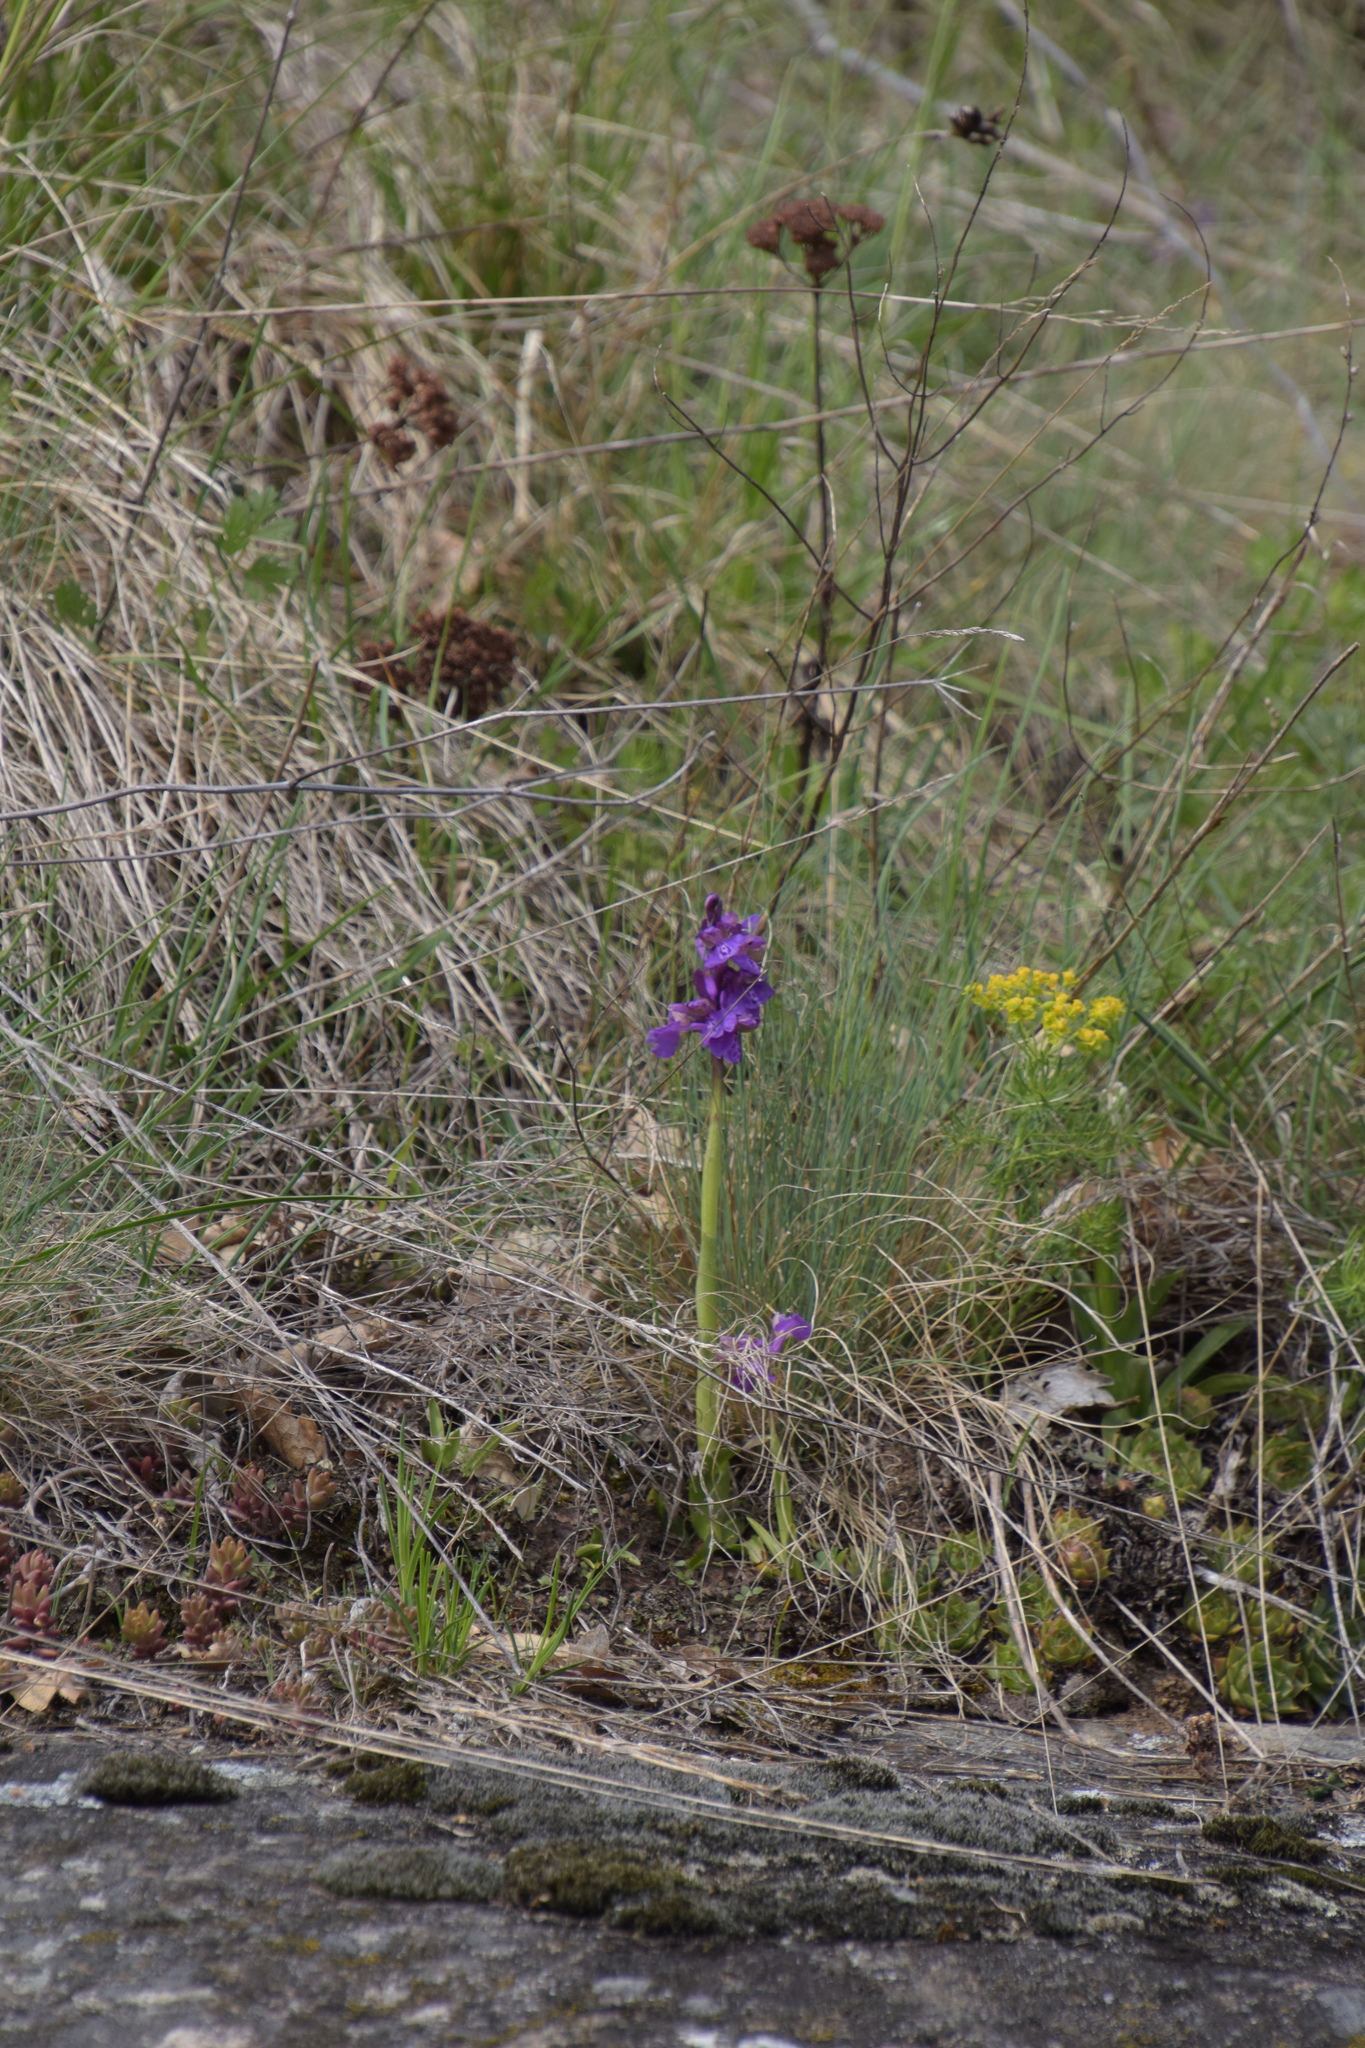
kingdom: Plantae
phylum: Tracheophyta
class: Liliopsida
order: Asparagales
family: Orchidaceae
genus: Anacamptis
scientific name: Anacamptis morio
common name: Green-winged orchid
